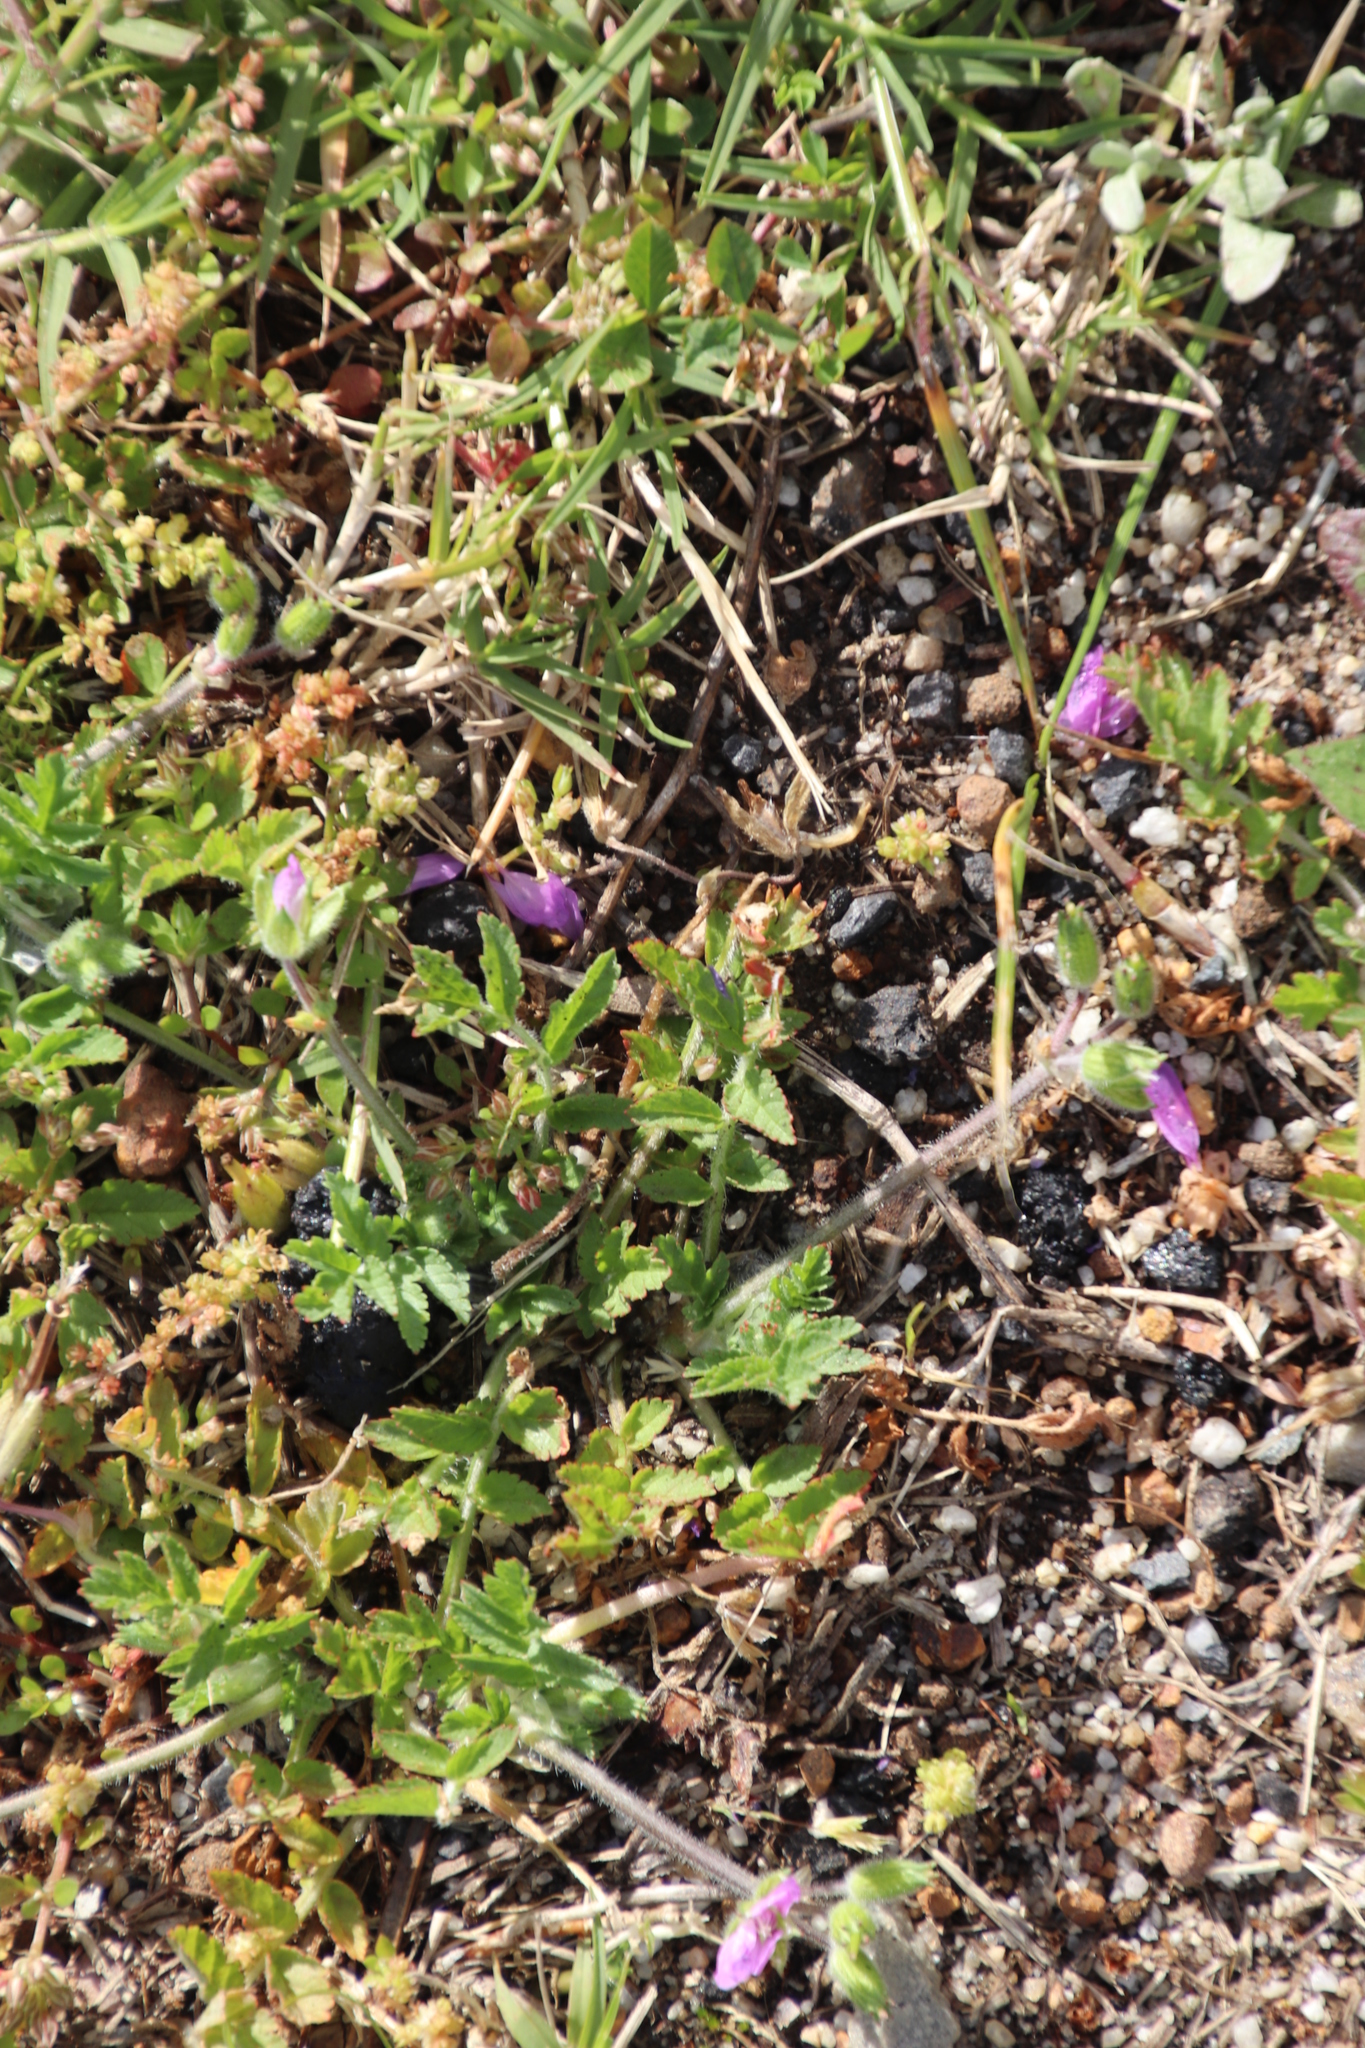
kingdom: Plantae
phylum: Tracheophyta
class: Magnoliopsida
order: Geraniales
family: Geraniaceae
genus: Erodium
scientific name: Erodium moschatum
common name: Musk stork's-bill
